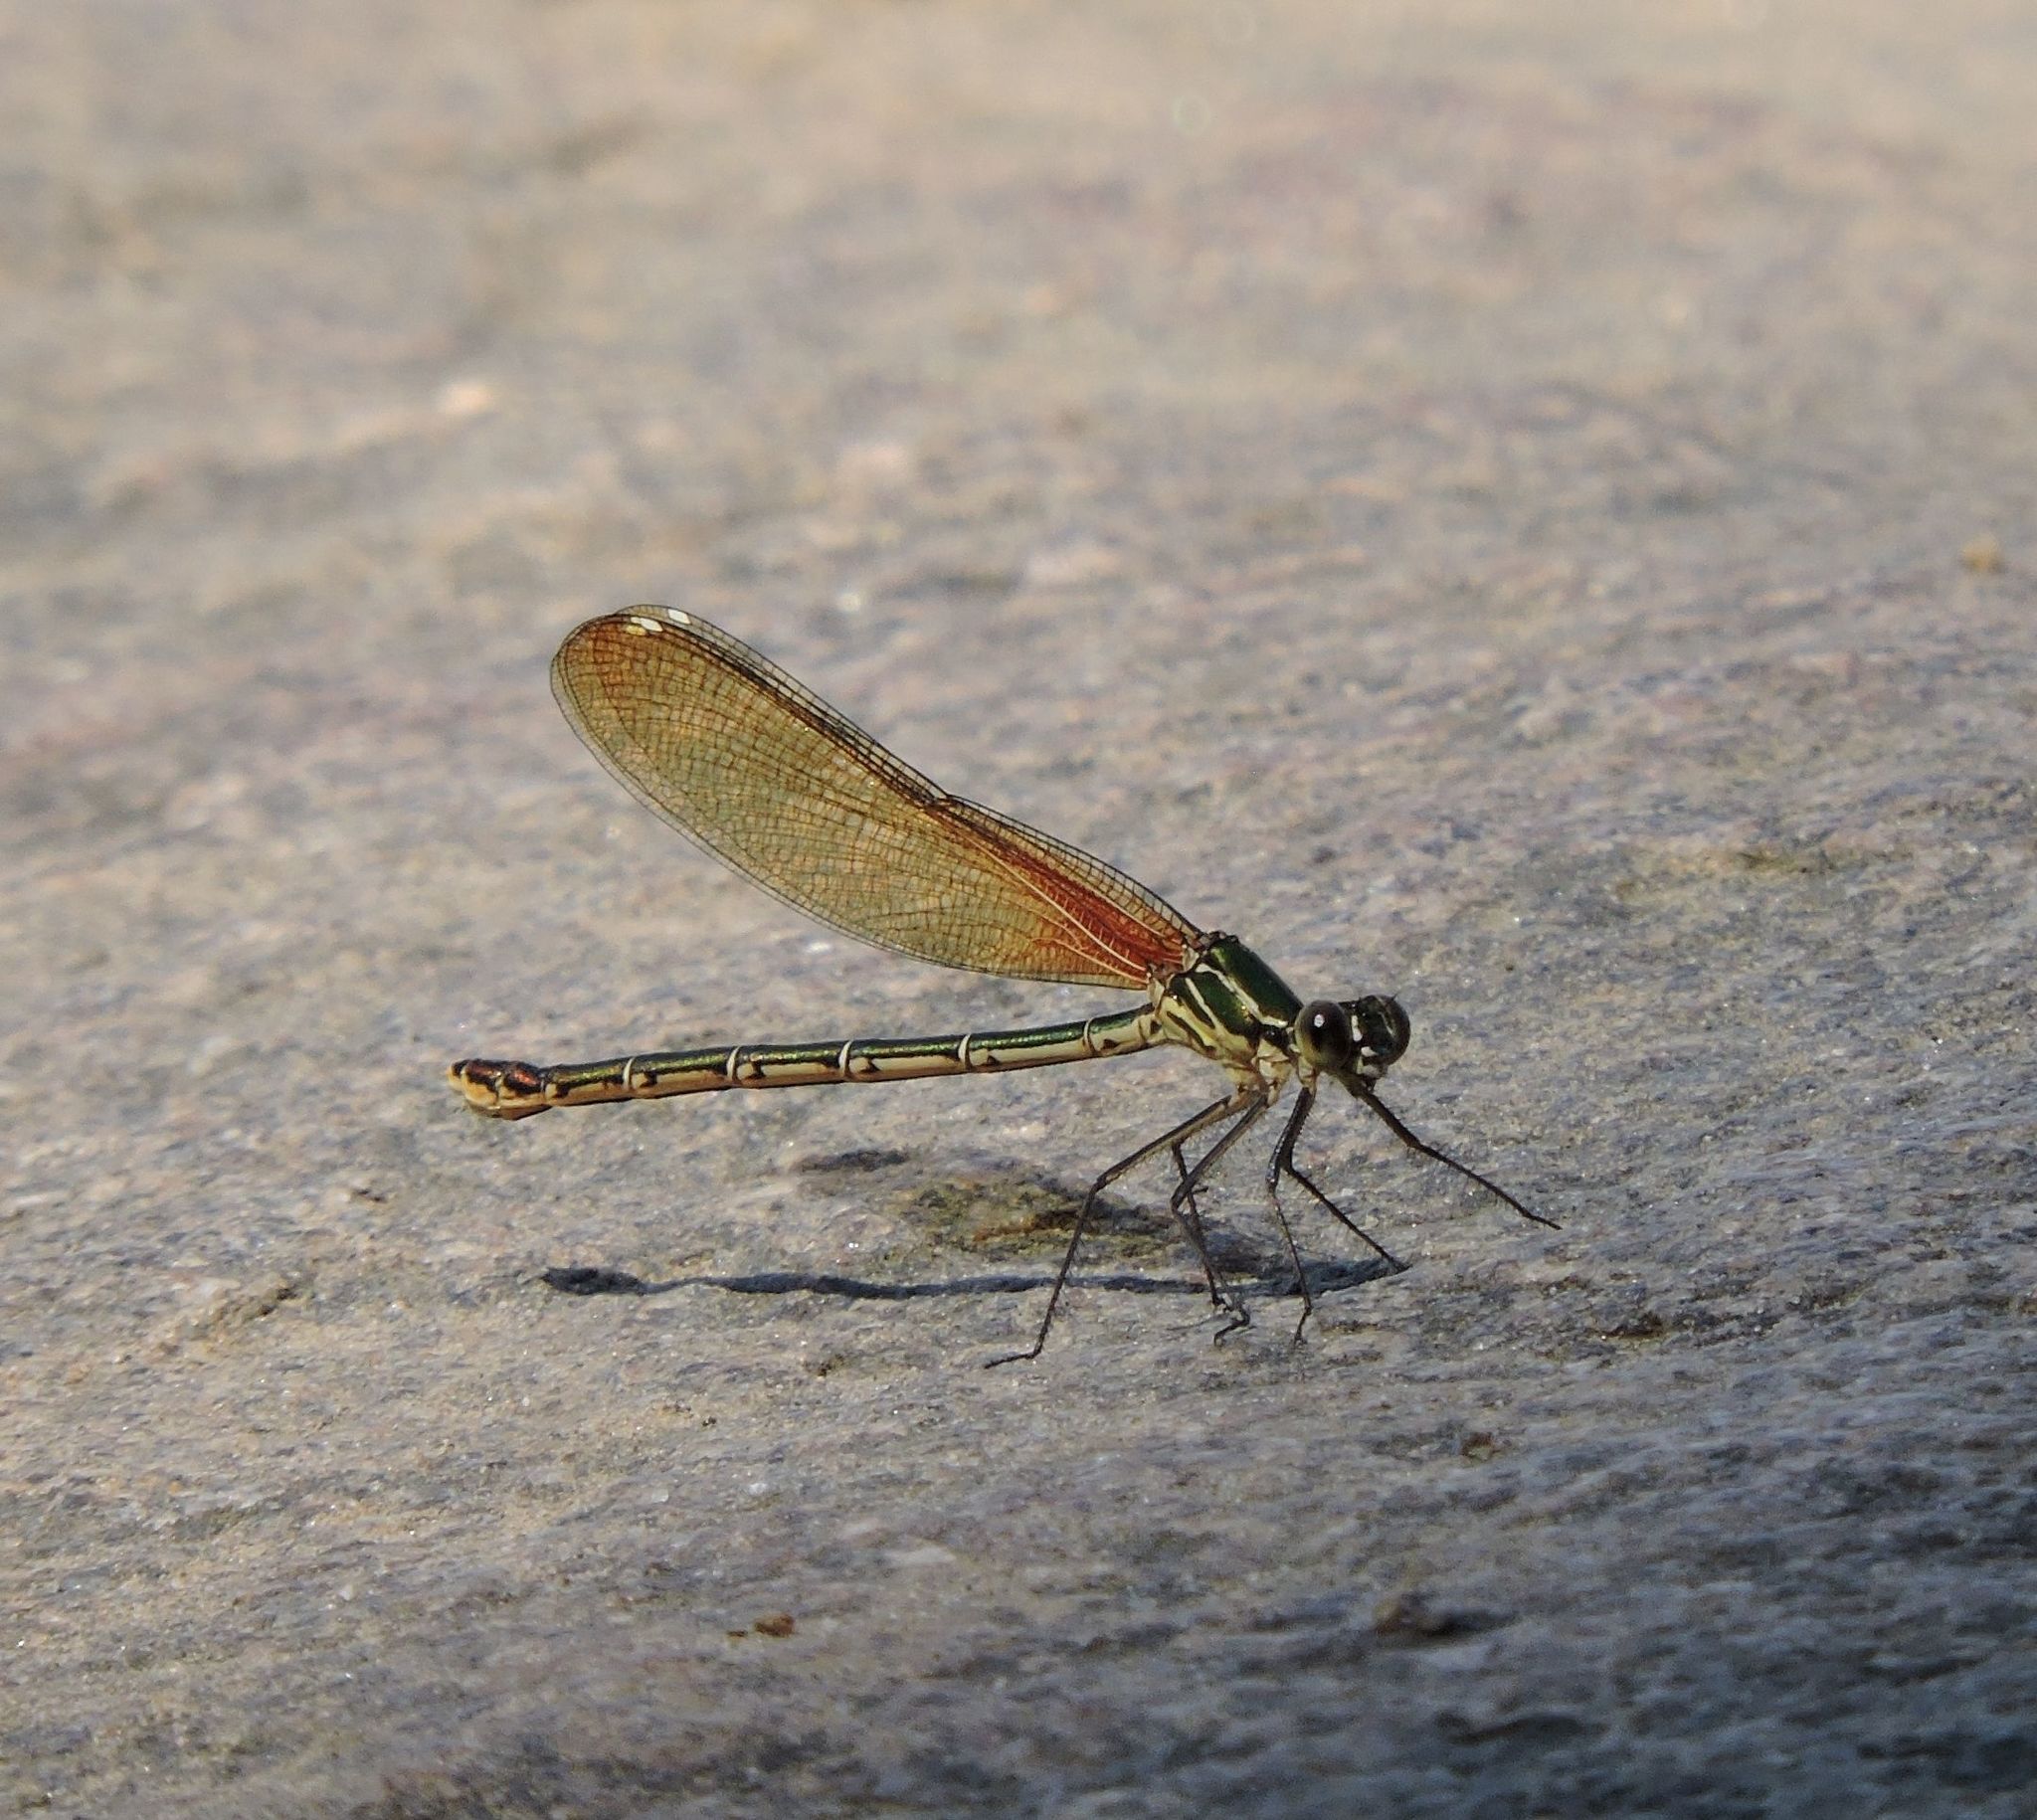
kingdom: Animalia
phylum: Arthropoda
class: Insecta
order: Odonata
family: Calopterygidae
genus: Hetaerina
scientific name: Hetaerina americana
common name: American rubyspot
